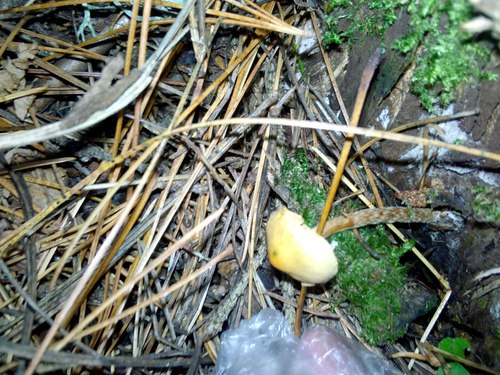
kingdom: Fungi
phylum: Basidiomycota
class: Agaricomycetes
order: Agaricales
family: Strophariaceae
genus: Hypholoma
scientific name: Hypholoma radicosum
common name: Rooting brownie
